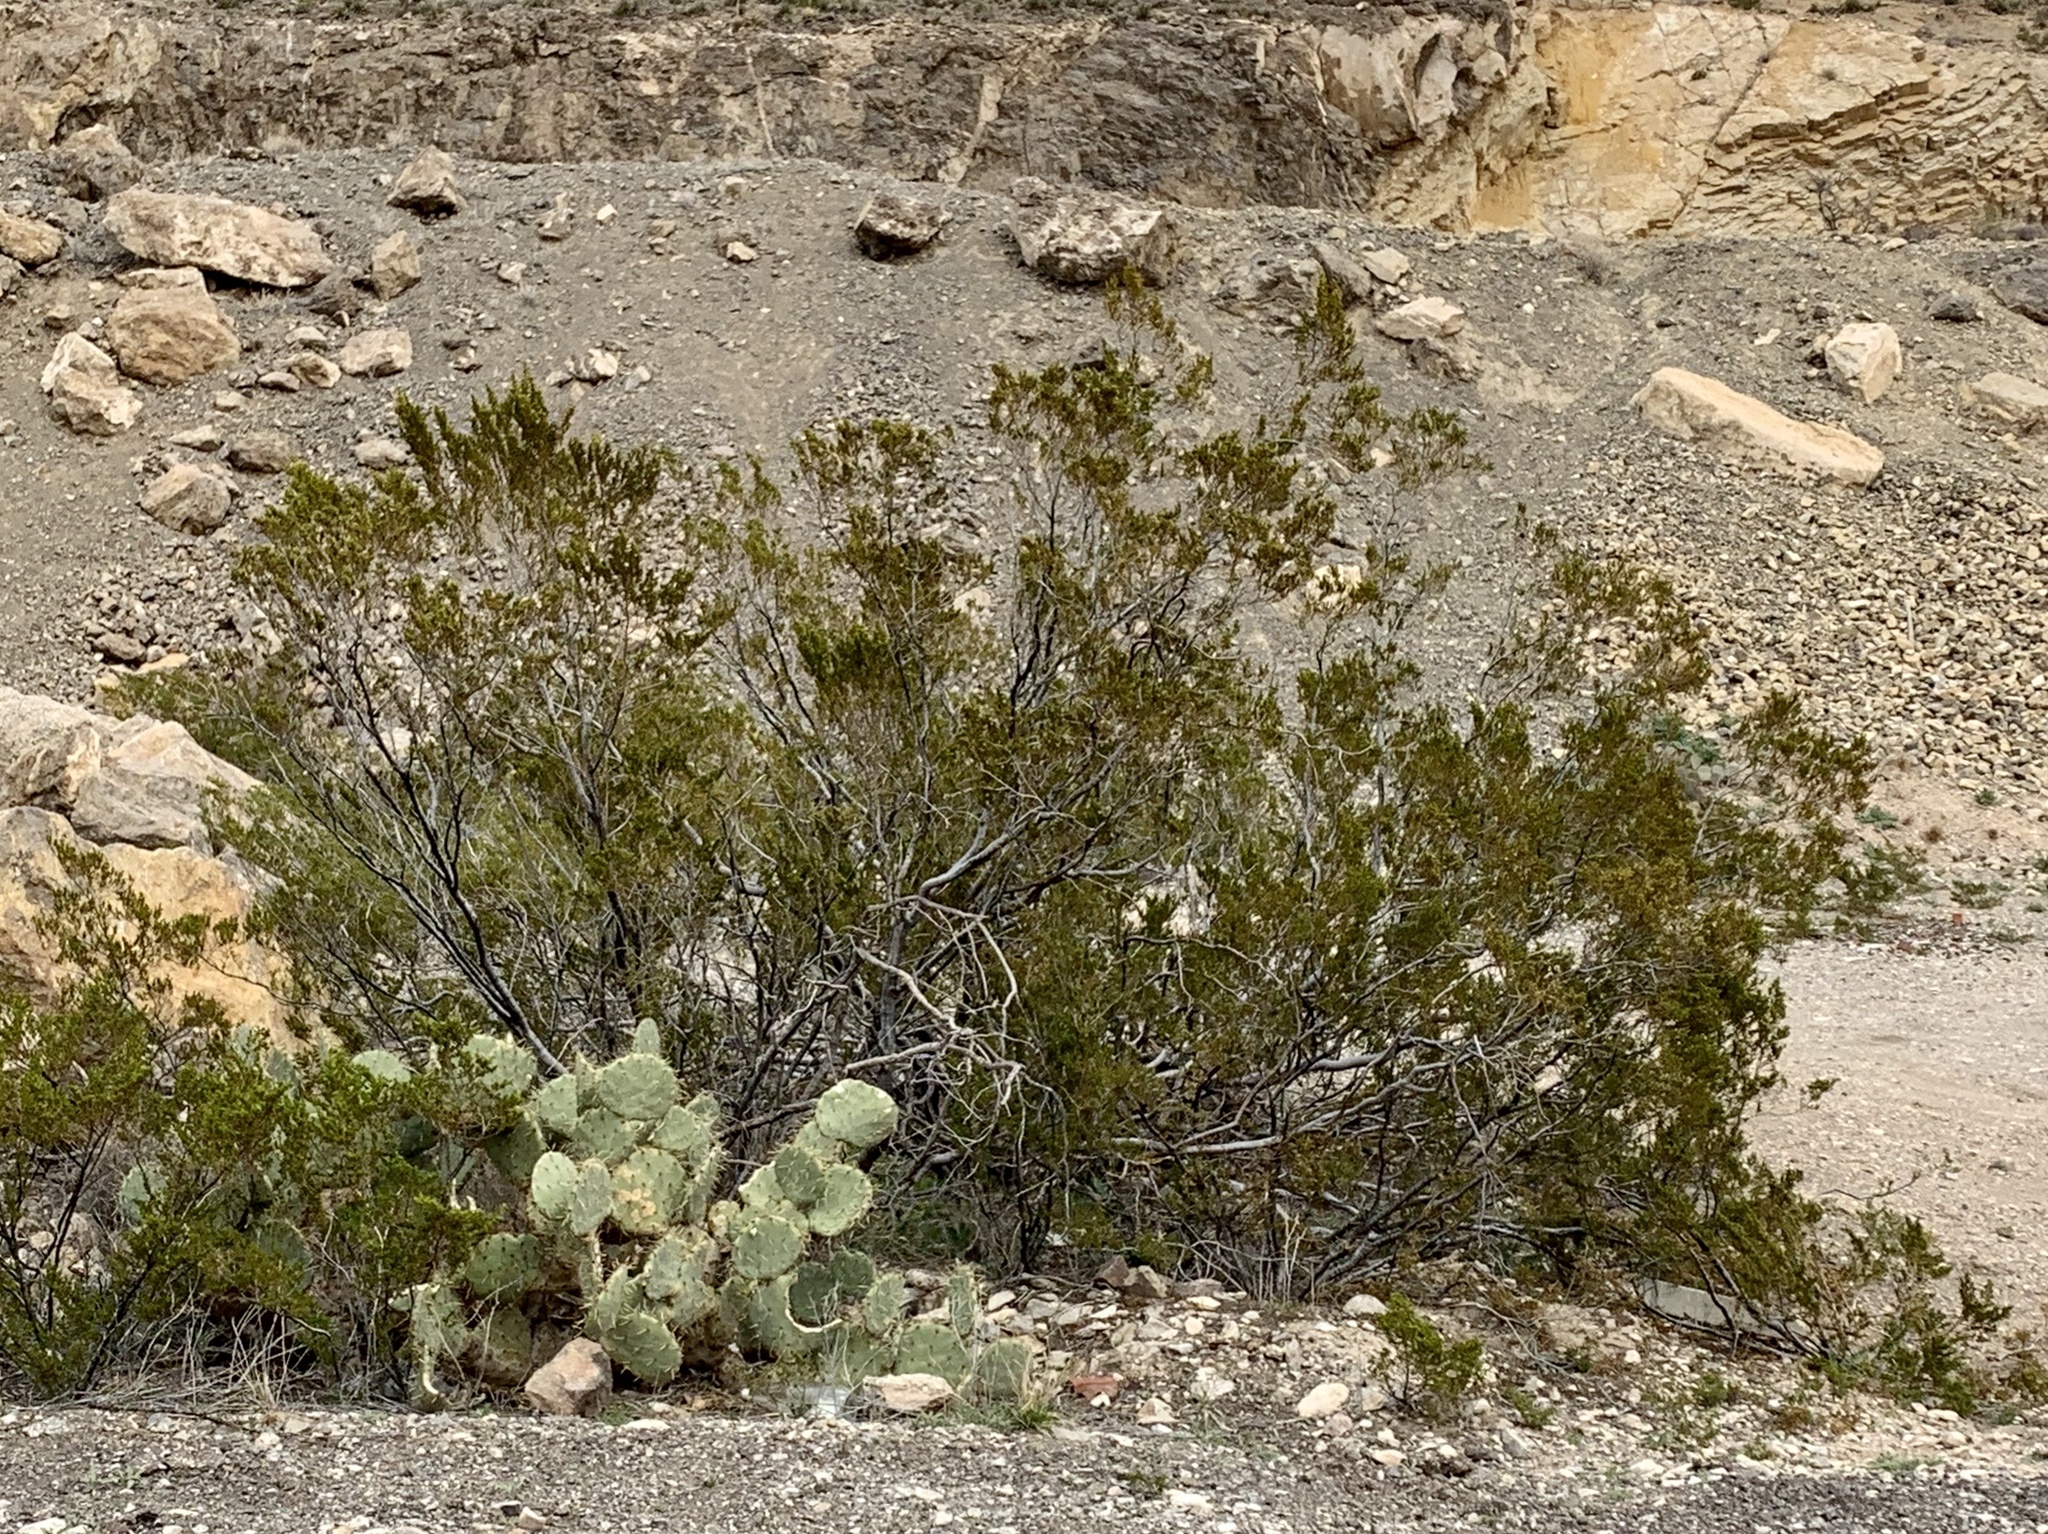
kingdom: Plantae
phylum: Tracheophyta
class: Magnoliopsida
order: Zygophyllales
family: Zygophyllaceae
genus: Larrea
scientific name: Larrea tridentata
